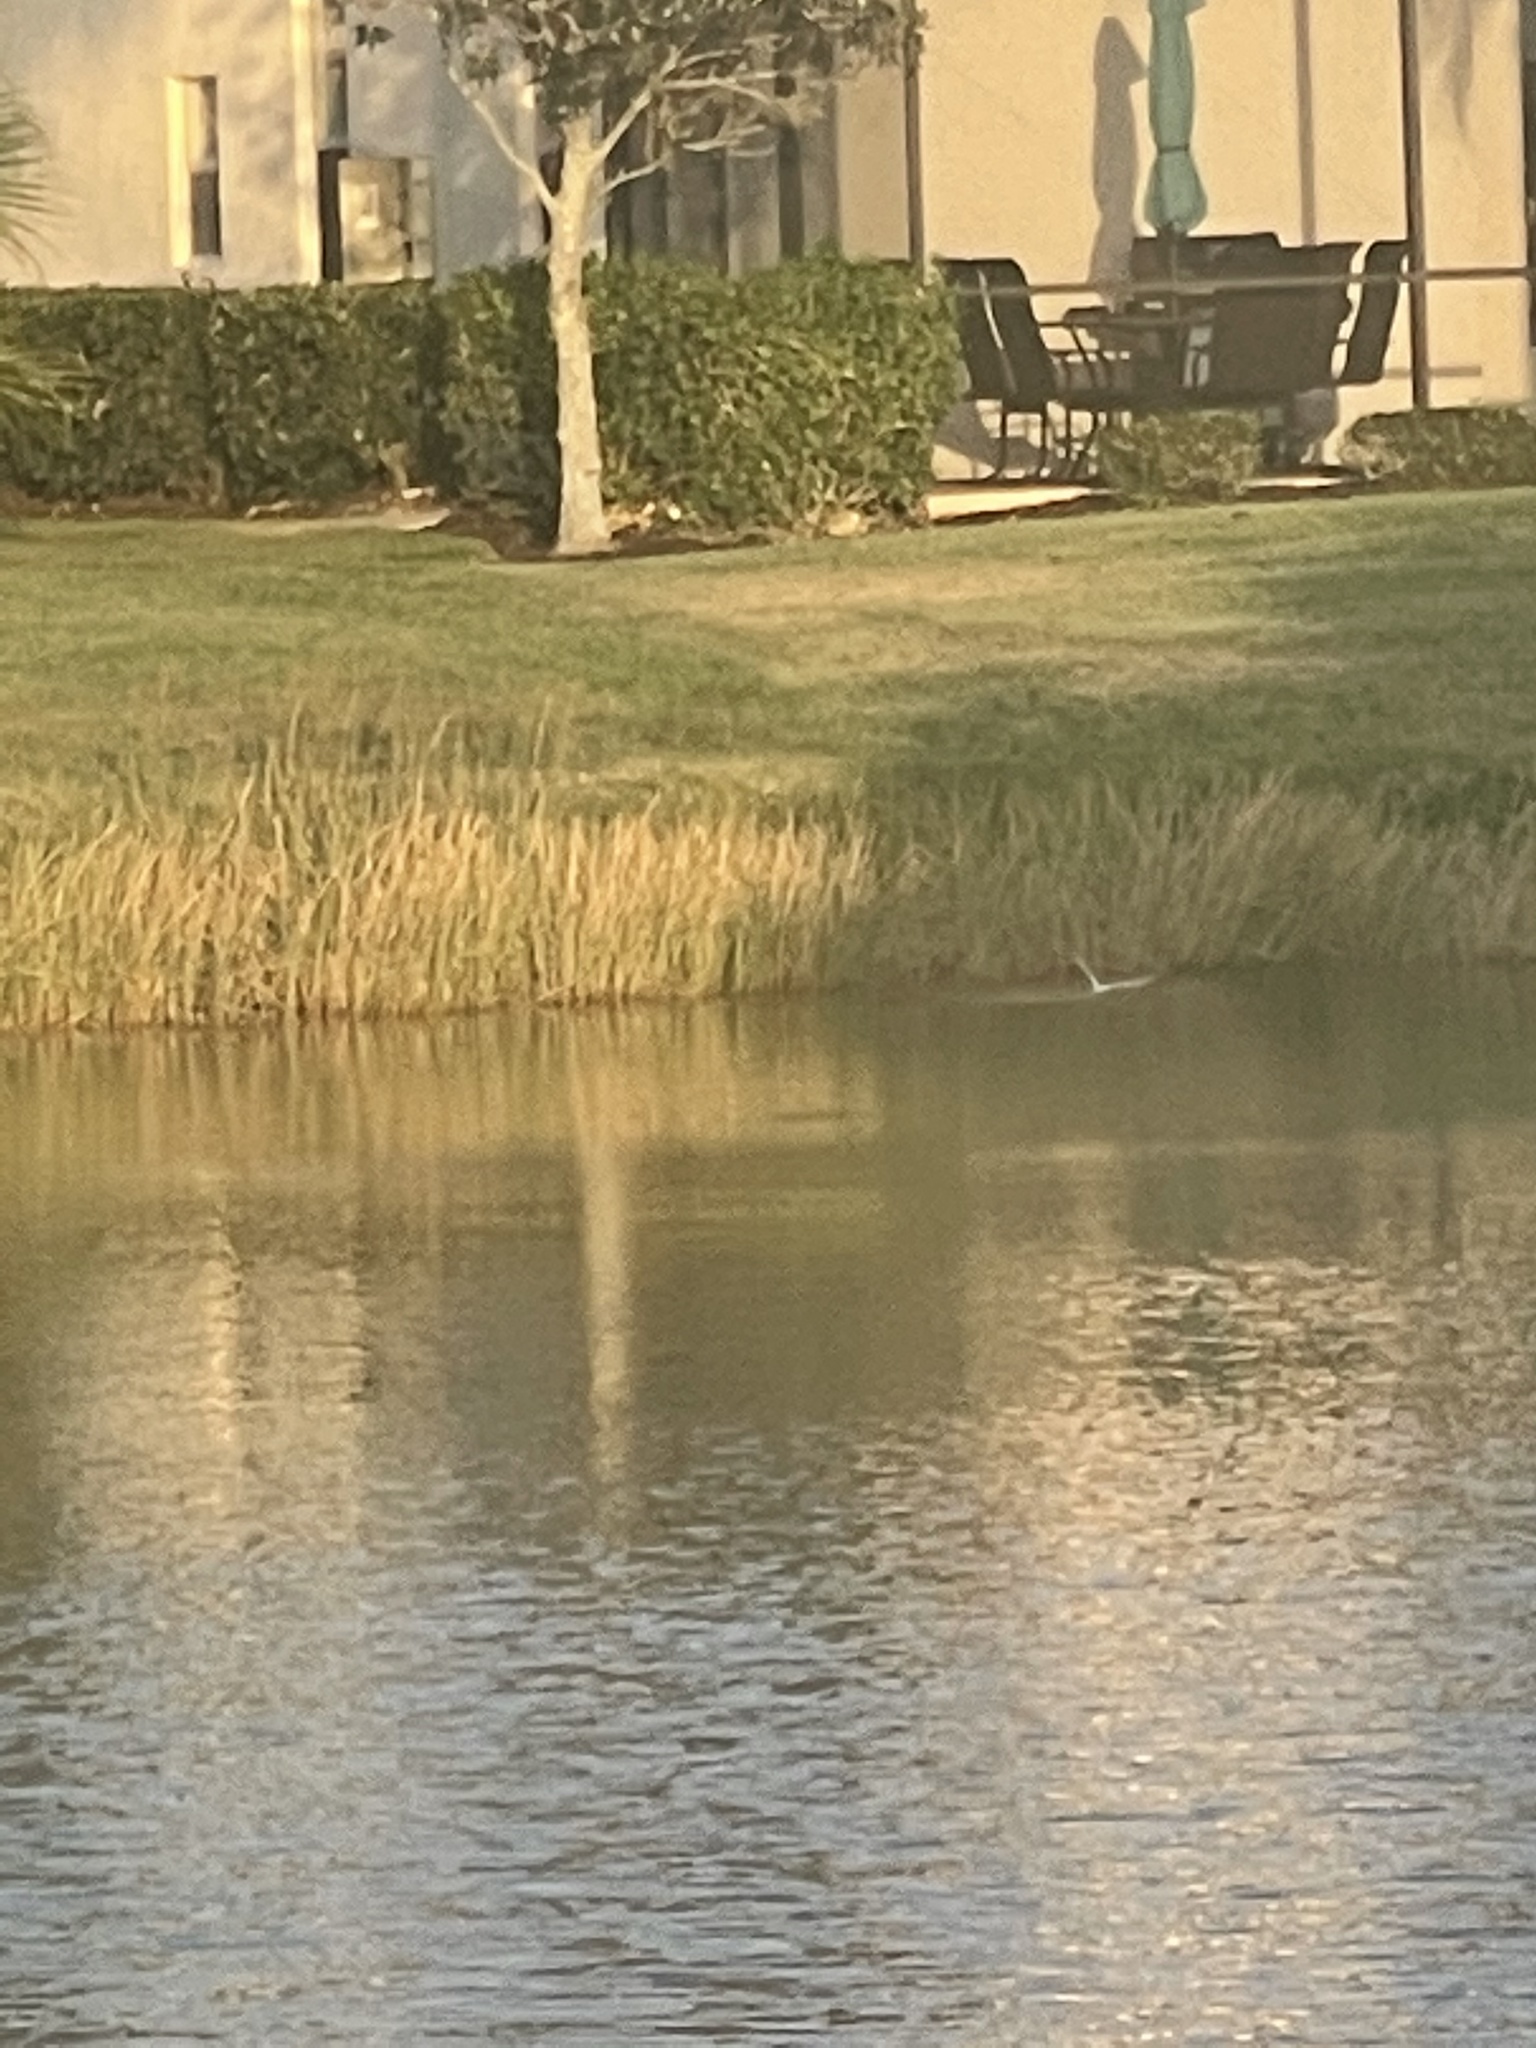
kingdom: Animalia
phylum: Chordata
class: Aves
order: Charadriiformes
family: Laridae
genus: Sterna
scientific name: Sterna forsteri
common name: Forster's tern
